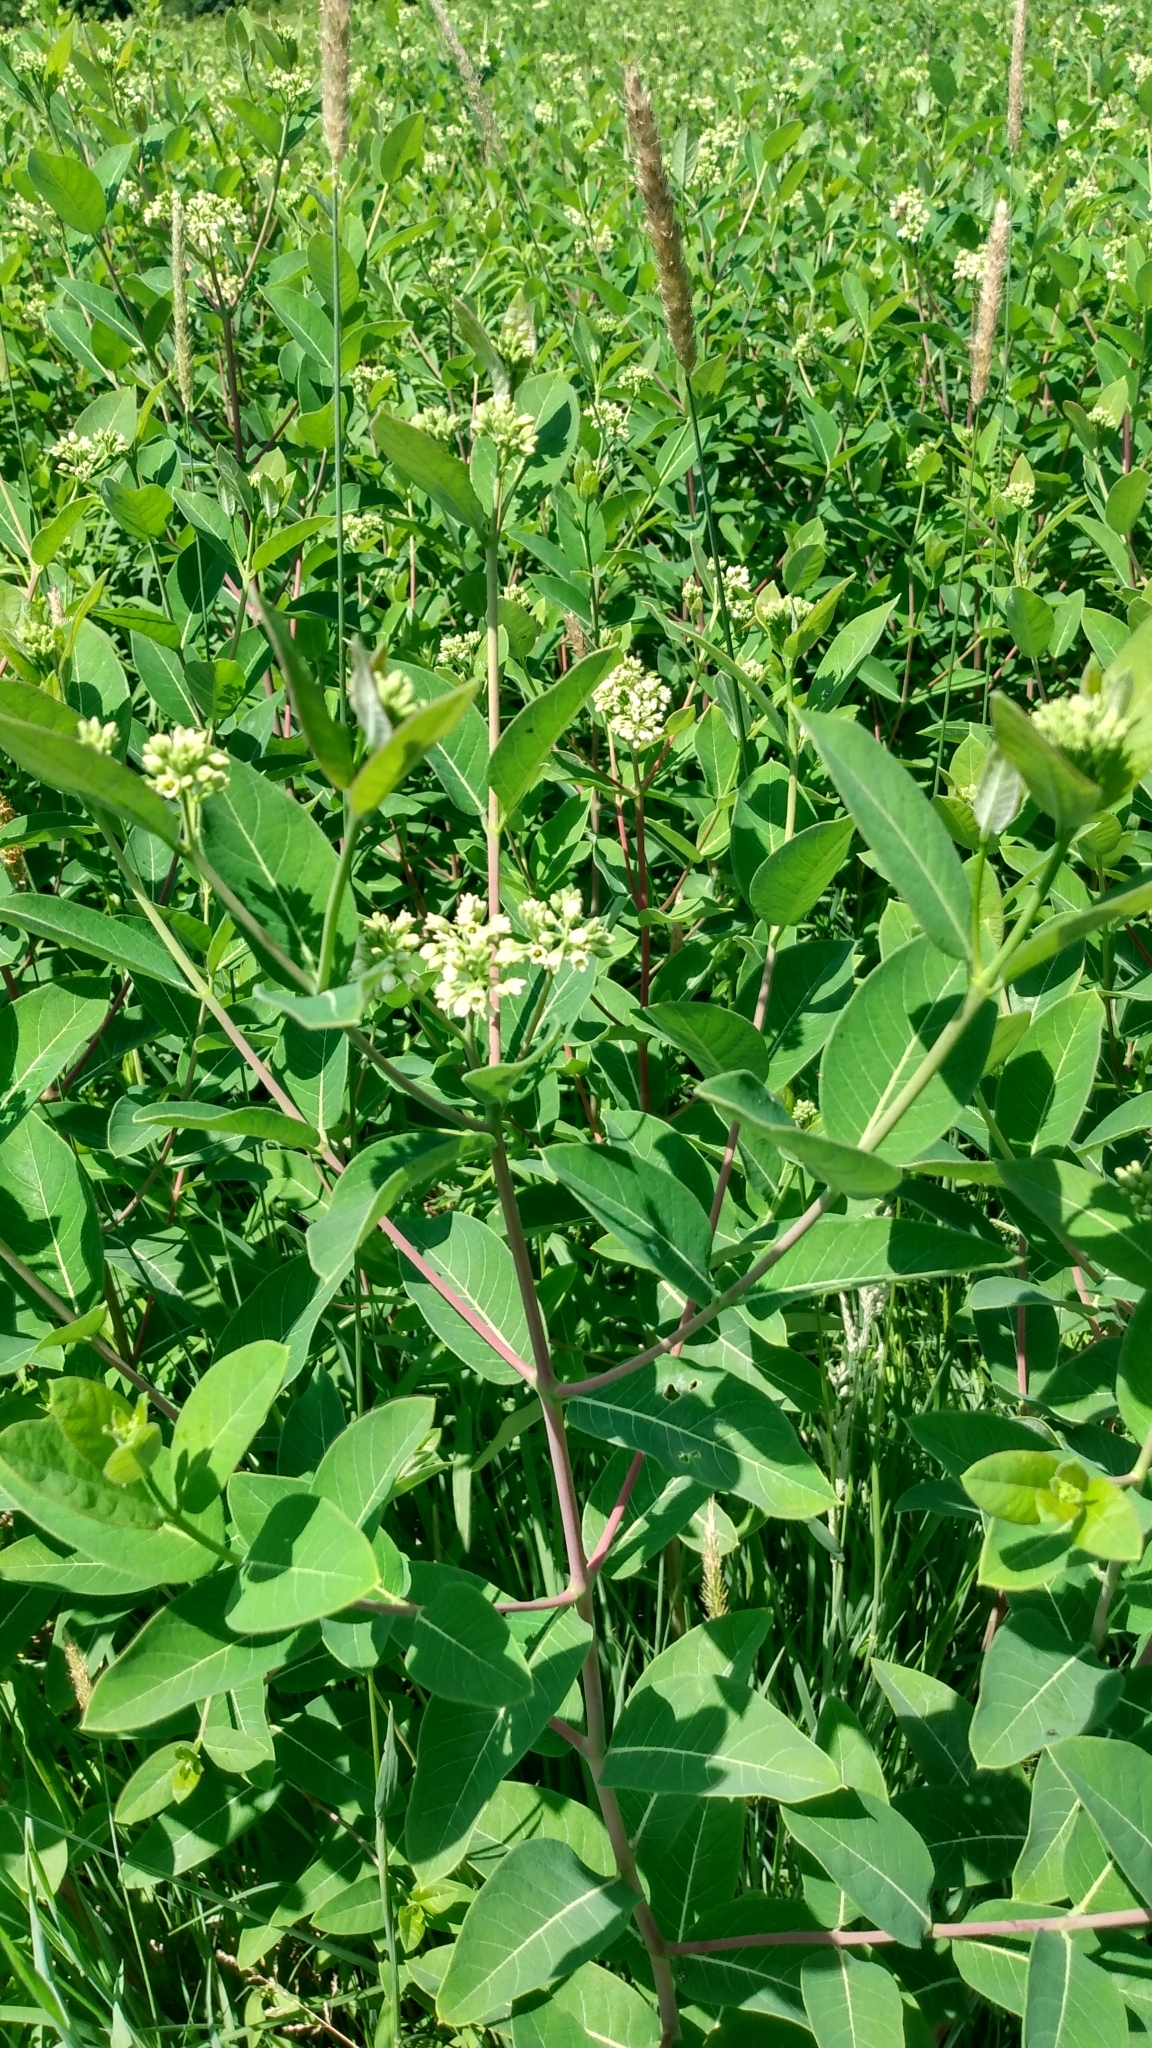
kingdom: Plantae
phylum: Tracheophyta
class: Magnoliopsida
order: Gentianales
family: Apocynaceae
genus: Apocynum
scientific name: Apocynum cannabinum
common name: Hemp dogbane
